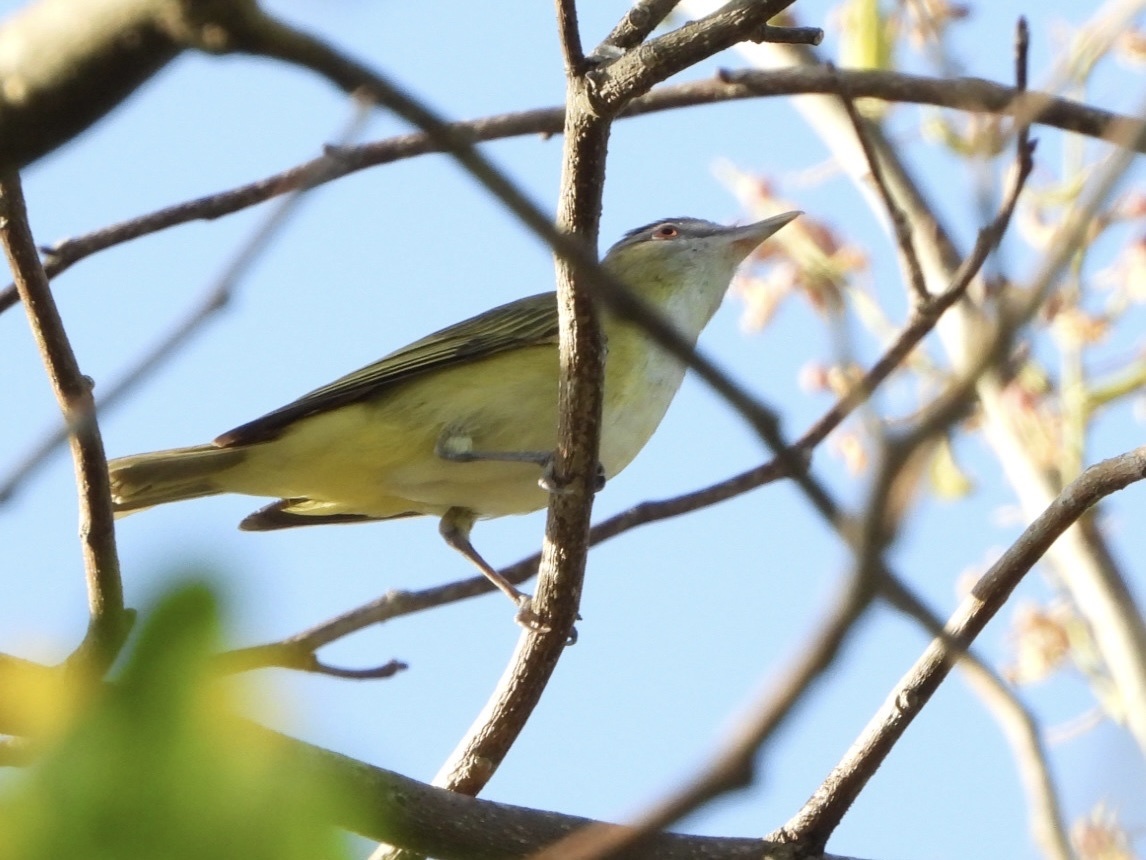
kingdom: Animalia
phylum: Chordata
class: Aves
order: Passeriformes
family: Vireonidae
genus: Vireo
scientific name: Vireo flavoviridis
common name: Yellow-green vireo
